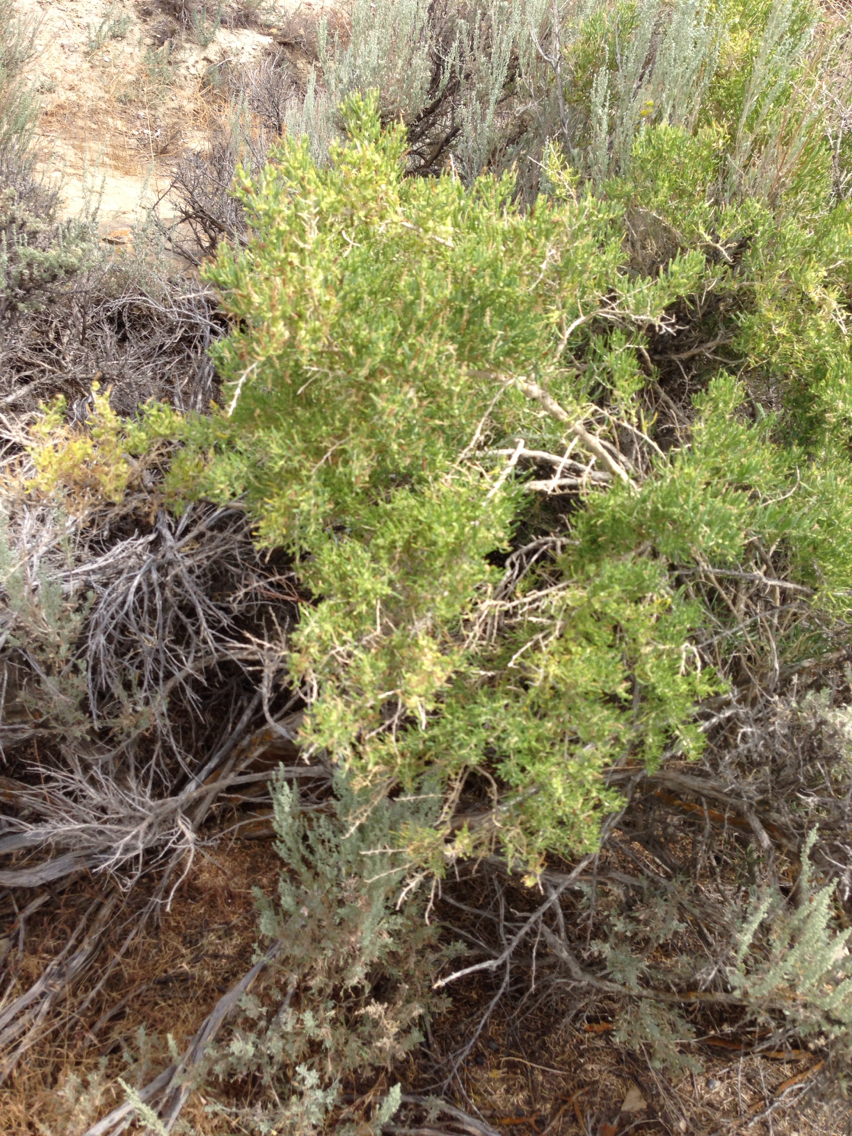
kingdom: Plantae
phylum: Tracheophyta
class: Magnoliopsida
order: Caryophyllales
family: Sarcobataceae
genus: Sarcobatus
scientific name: Sarcobatus vermiculatus
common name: Greasewood
